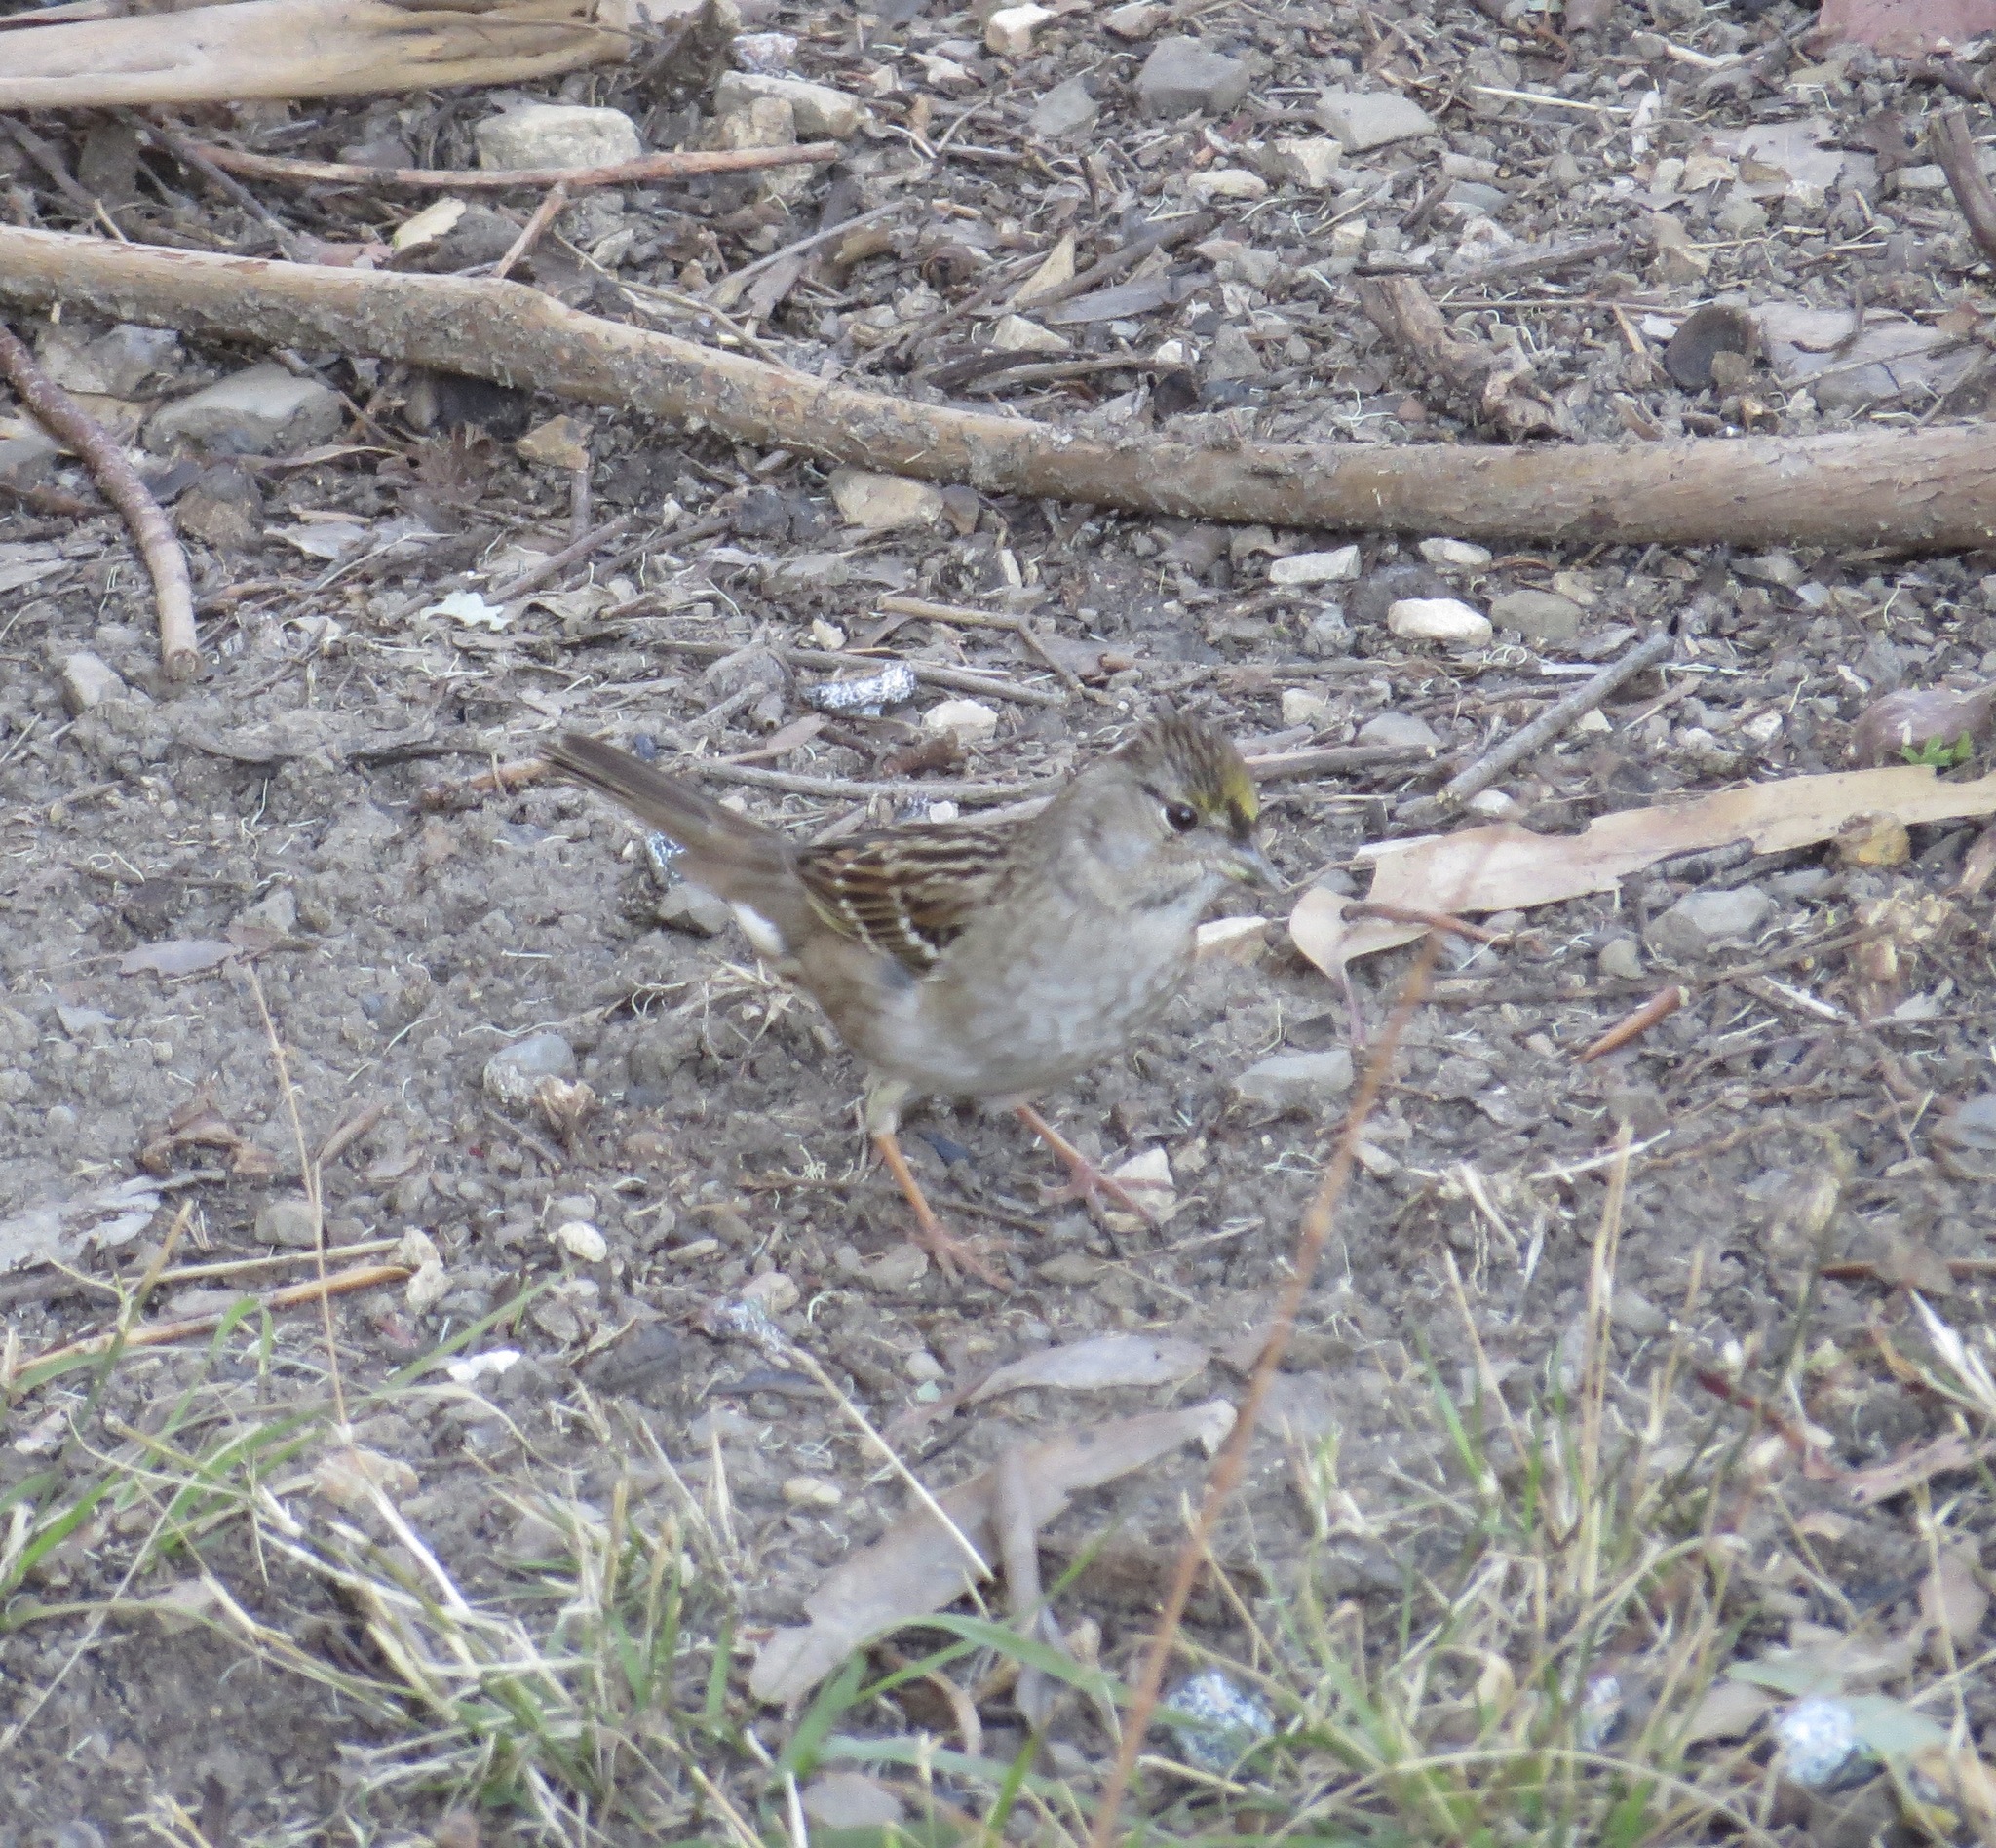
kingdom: Animalia
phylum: Chordata
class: Aves
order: Passeriformes
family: Passerellidae
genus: Zonotrichia
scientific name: Zonotrichia atricapilla
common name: Golden-crowned sparrow
